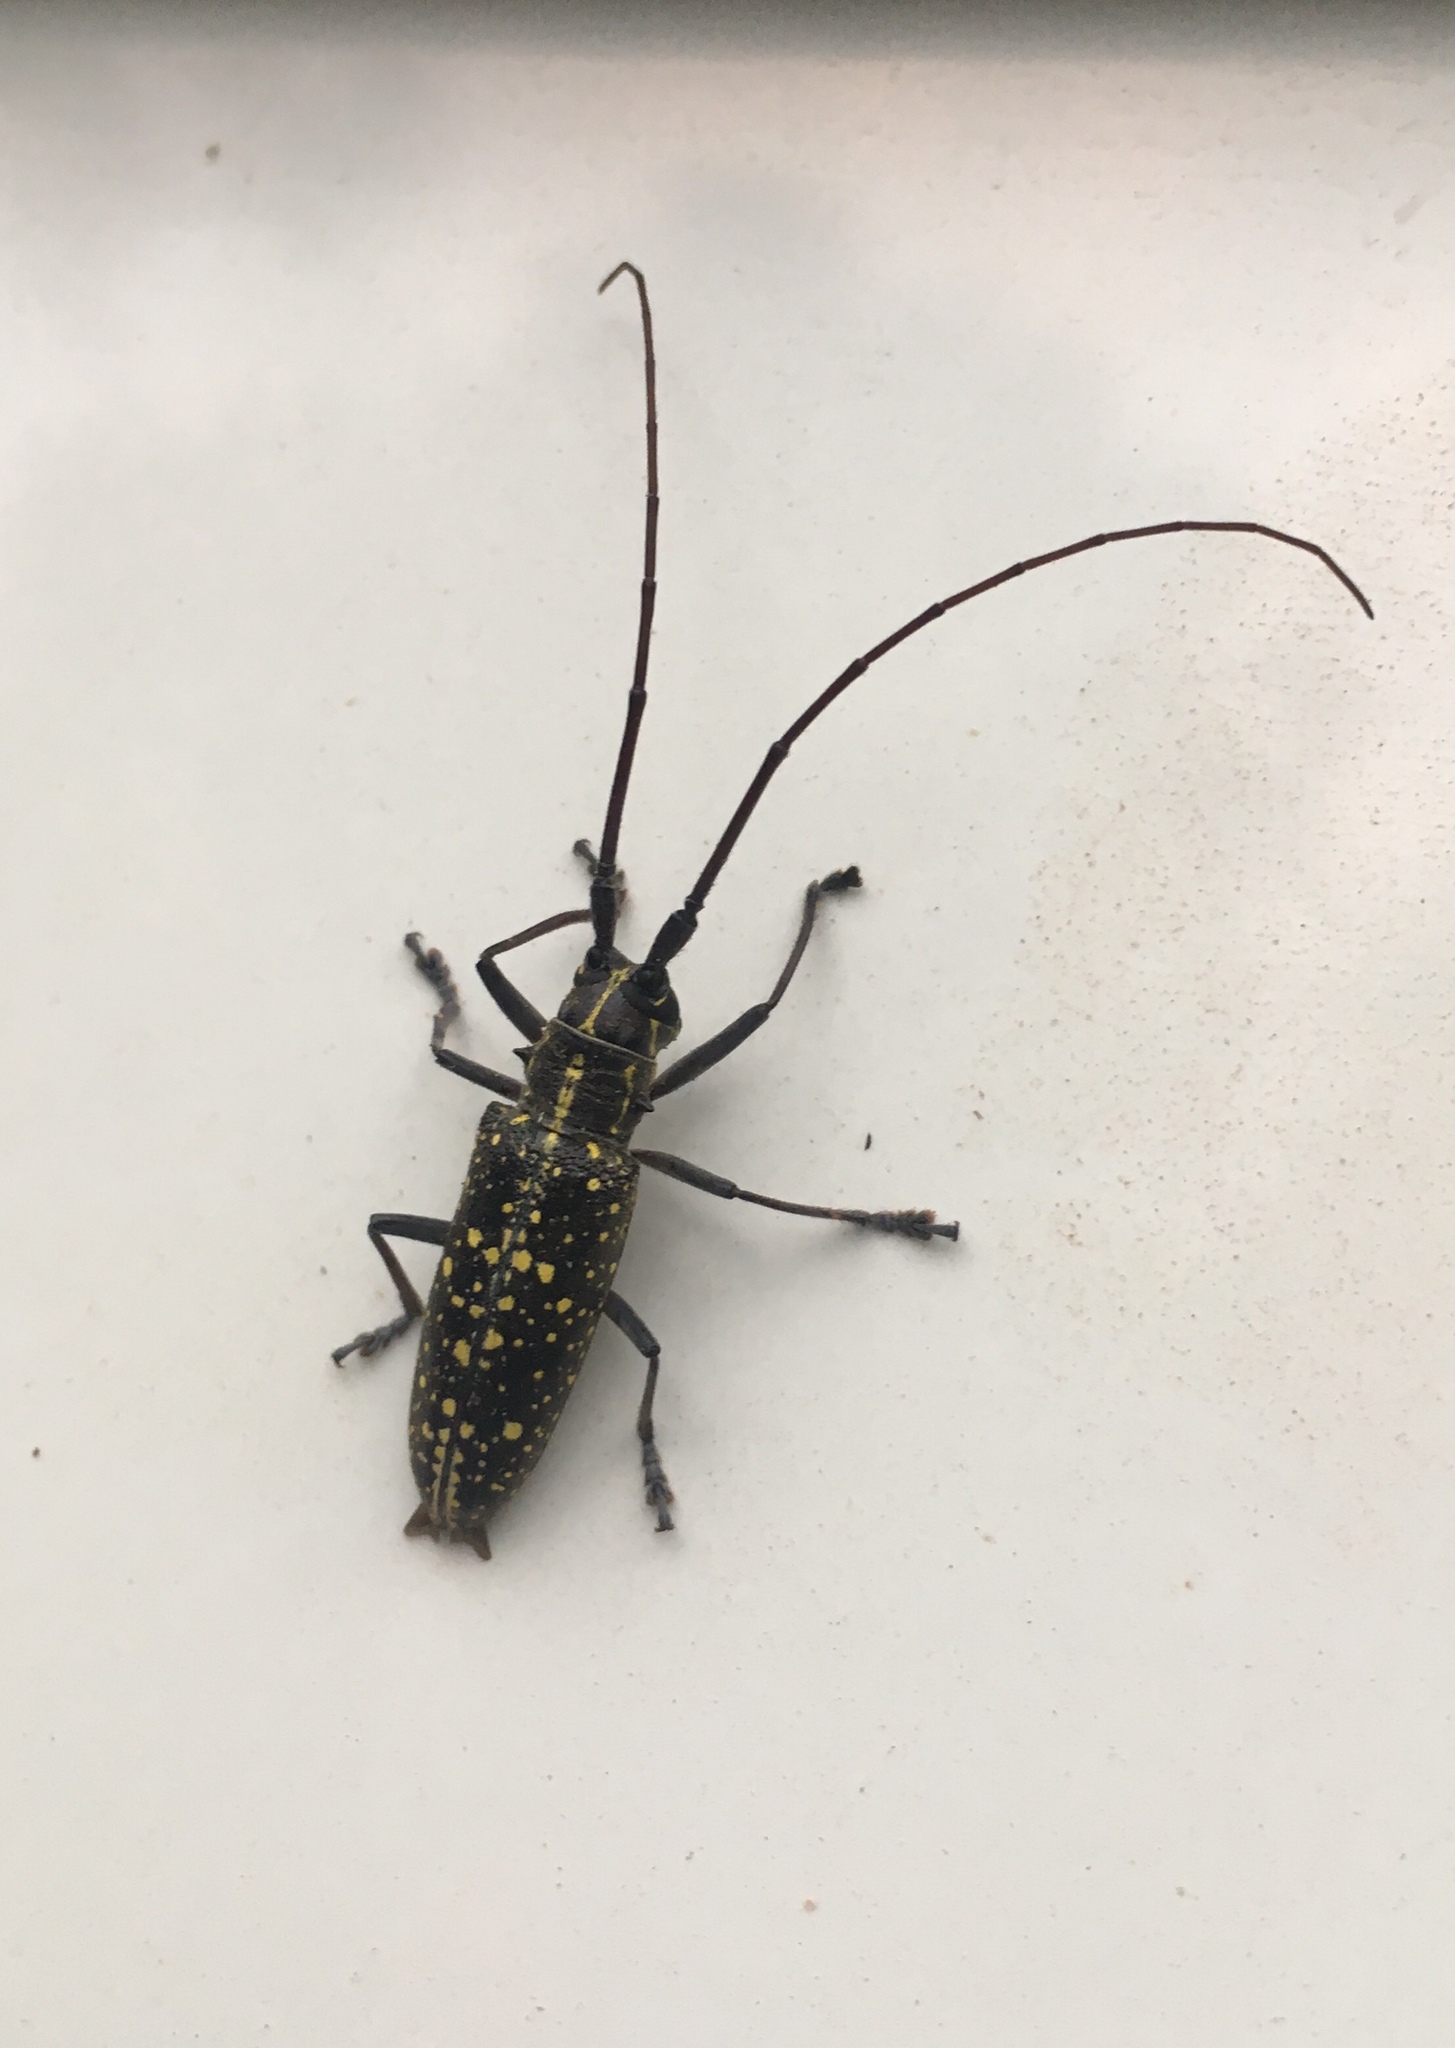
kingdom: Animalia
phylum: Arthropoda
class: Insecta
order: Coleoptera
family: Cerambycidae
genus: Taeniotes
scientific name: Taeniotes naevius
